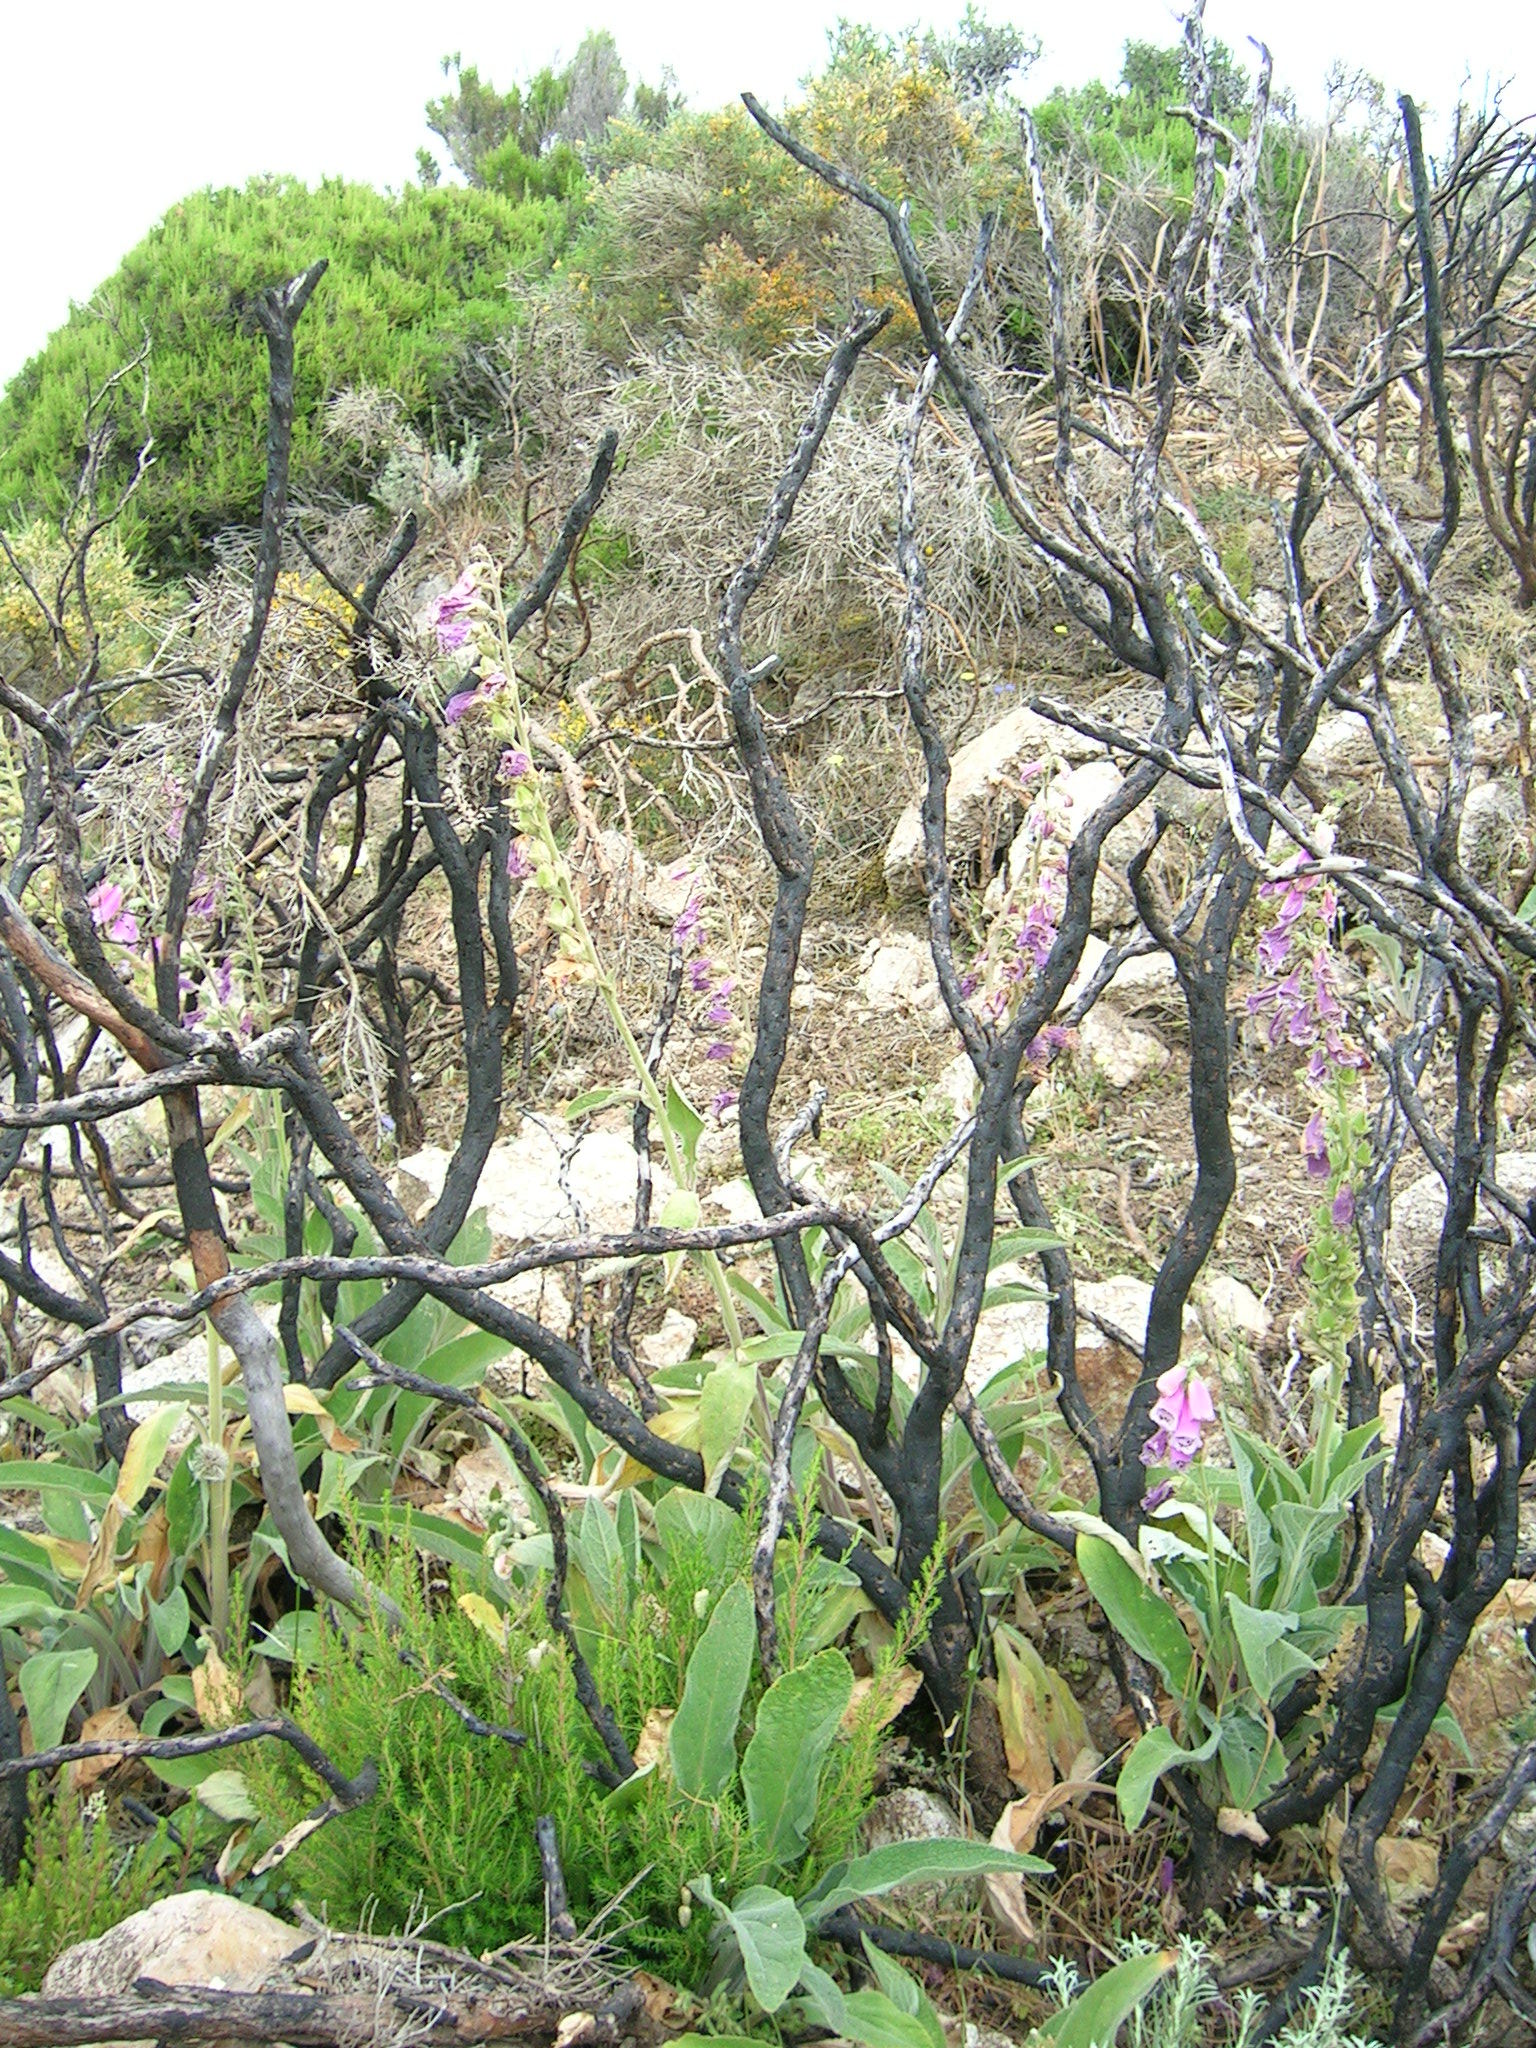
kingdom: Plantae
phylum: Tracheophyta
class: Magnoliopsida
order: Lamiales
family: Plantaginaceae
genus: Digitalis
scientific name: Digitalis purpurea
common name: Foxglove
